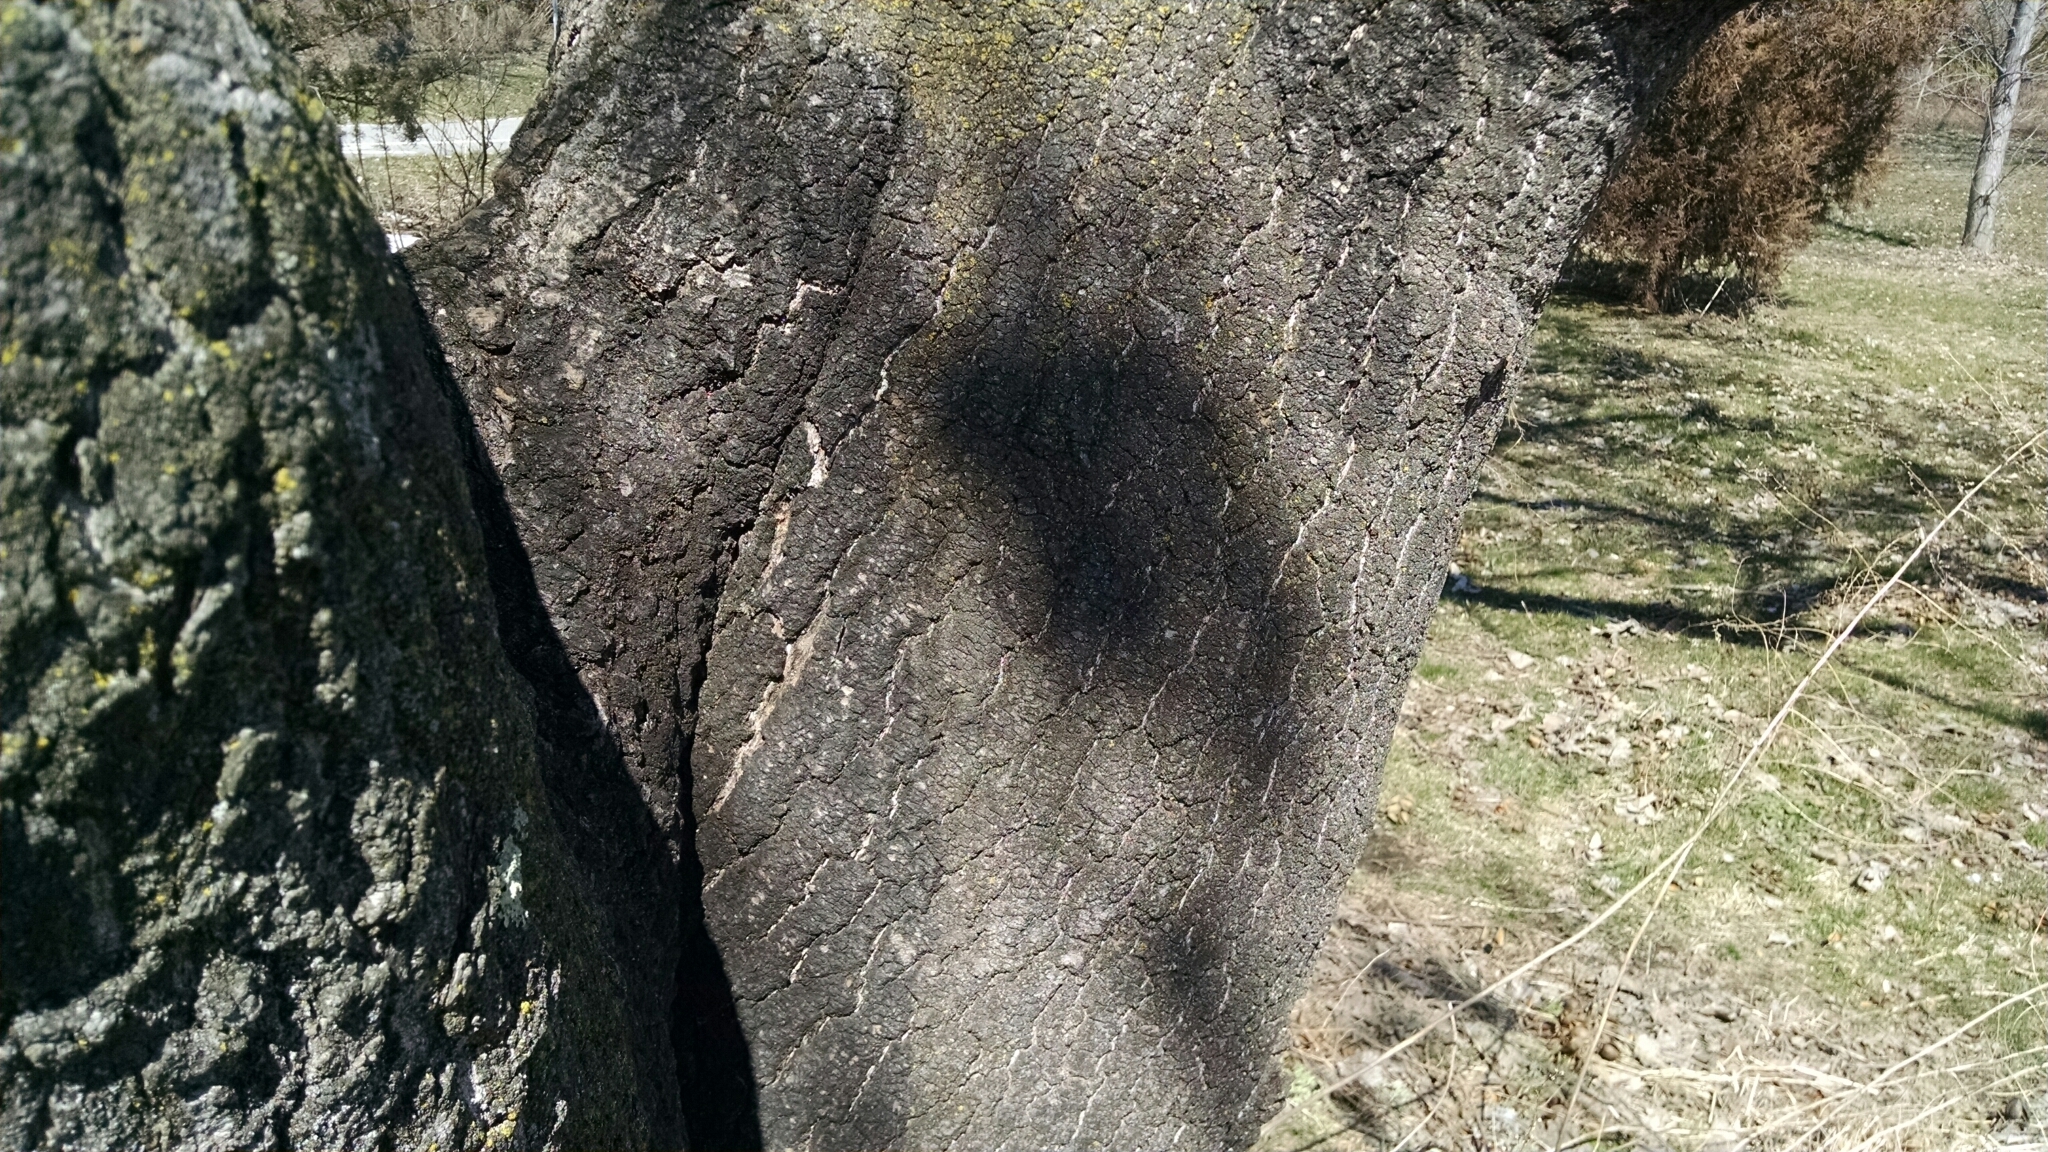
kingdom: Plantae
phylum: Tracheophyta
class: Magnoliopsida
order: Lamiales
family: Paulowniaceae
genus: Paulownia
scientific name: Paulownia tomentosa
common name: Foxglove-tree
